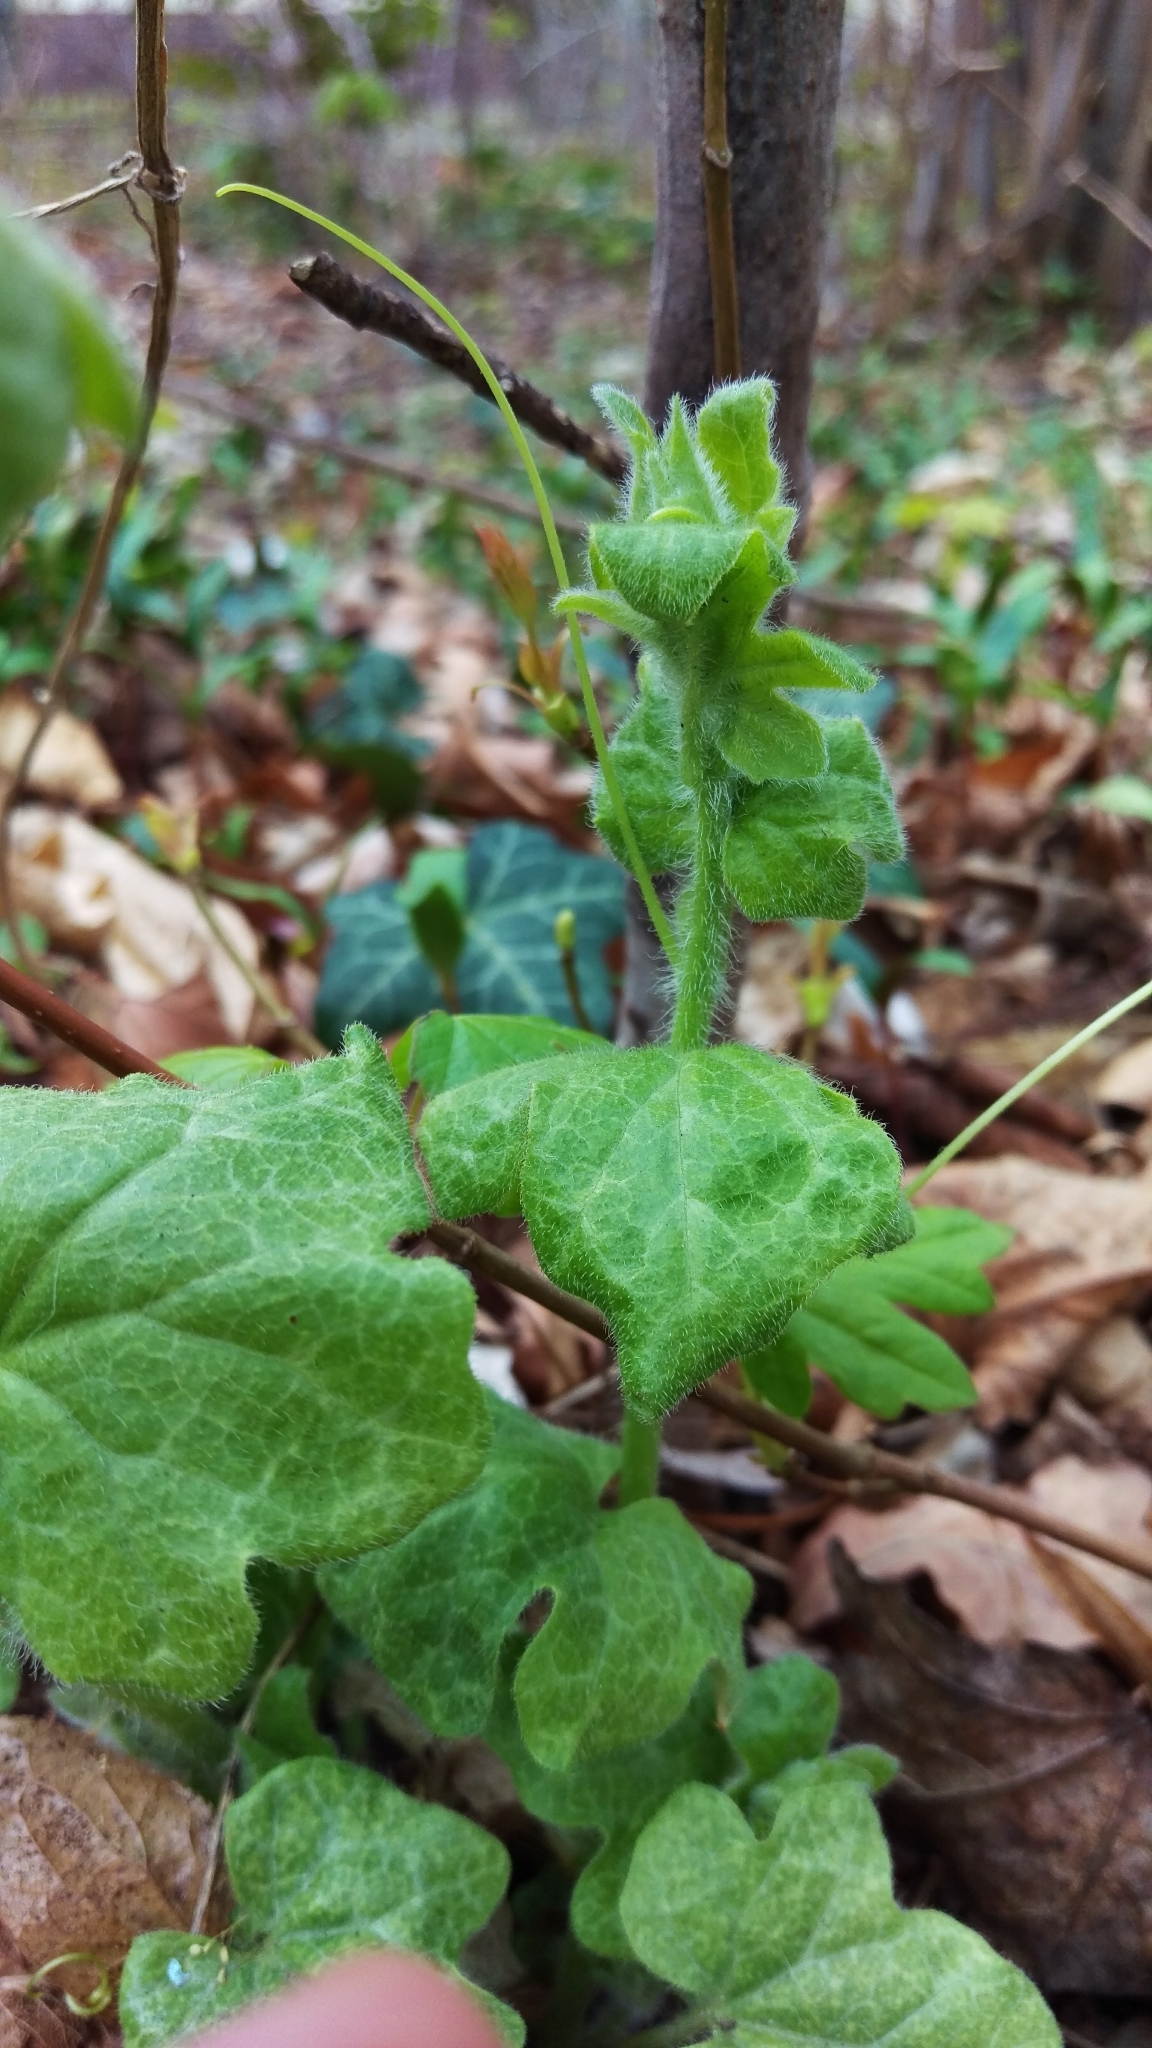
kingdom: Plantae
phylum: Tracheophyta
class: Magnoliopsida
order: Cucurbitales
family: Cucurbitaceae
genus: Bryonia
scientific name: Bryonia cretica
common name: Cretan bryony
